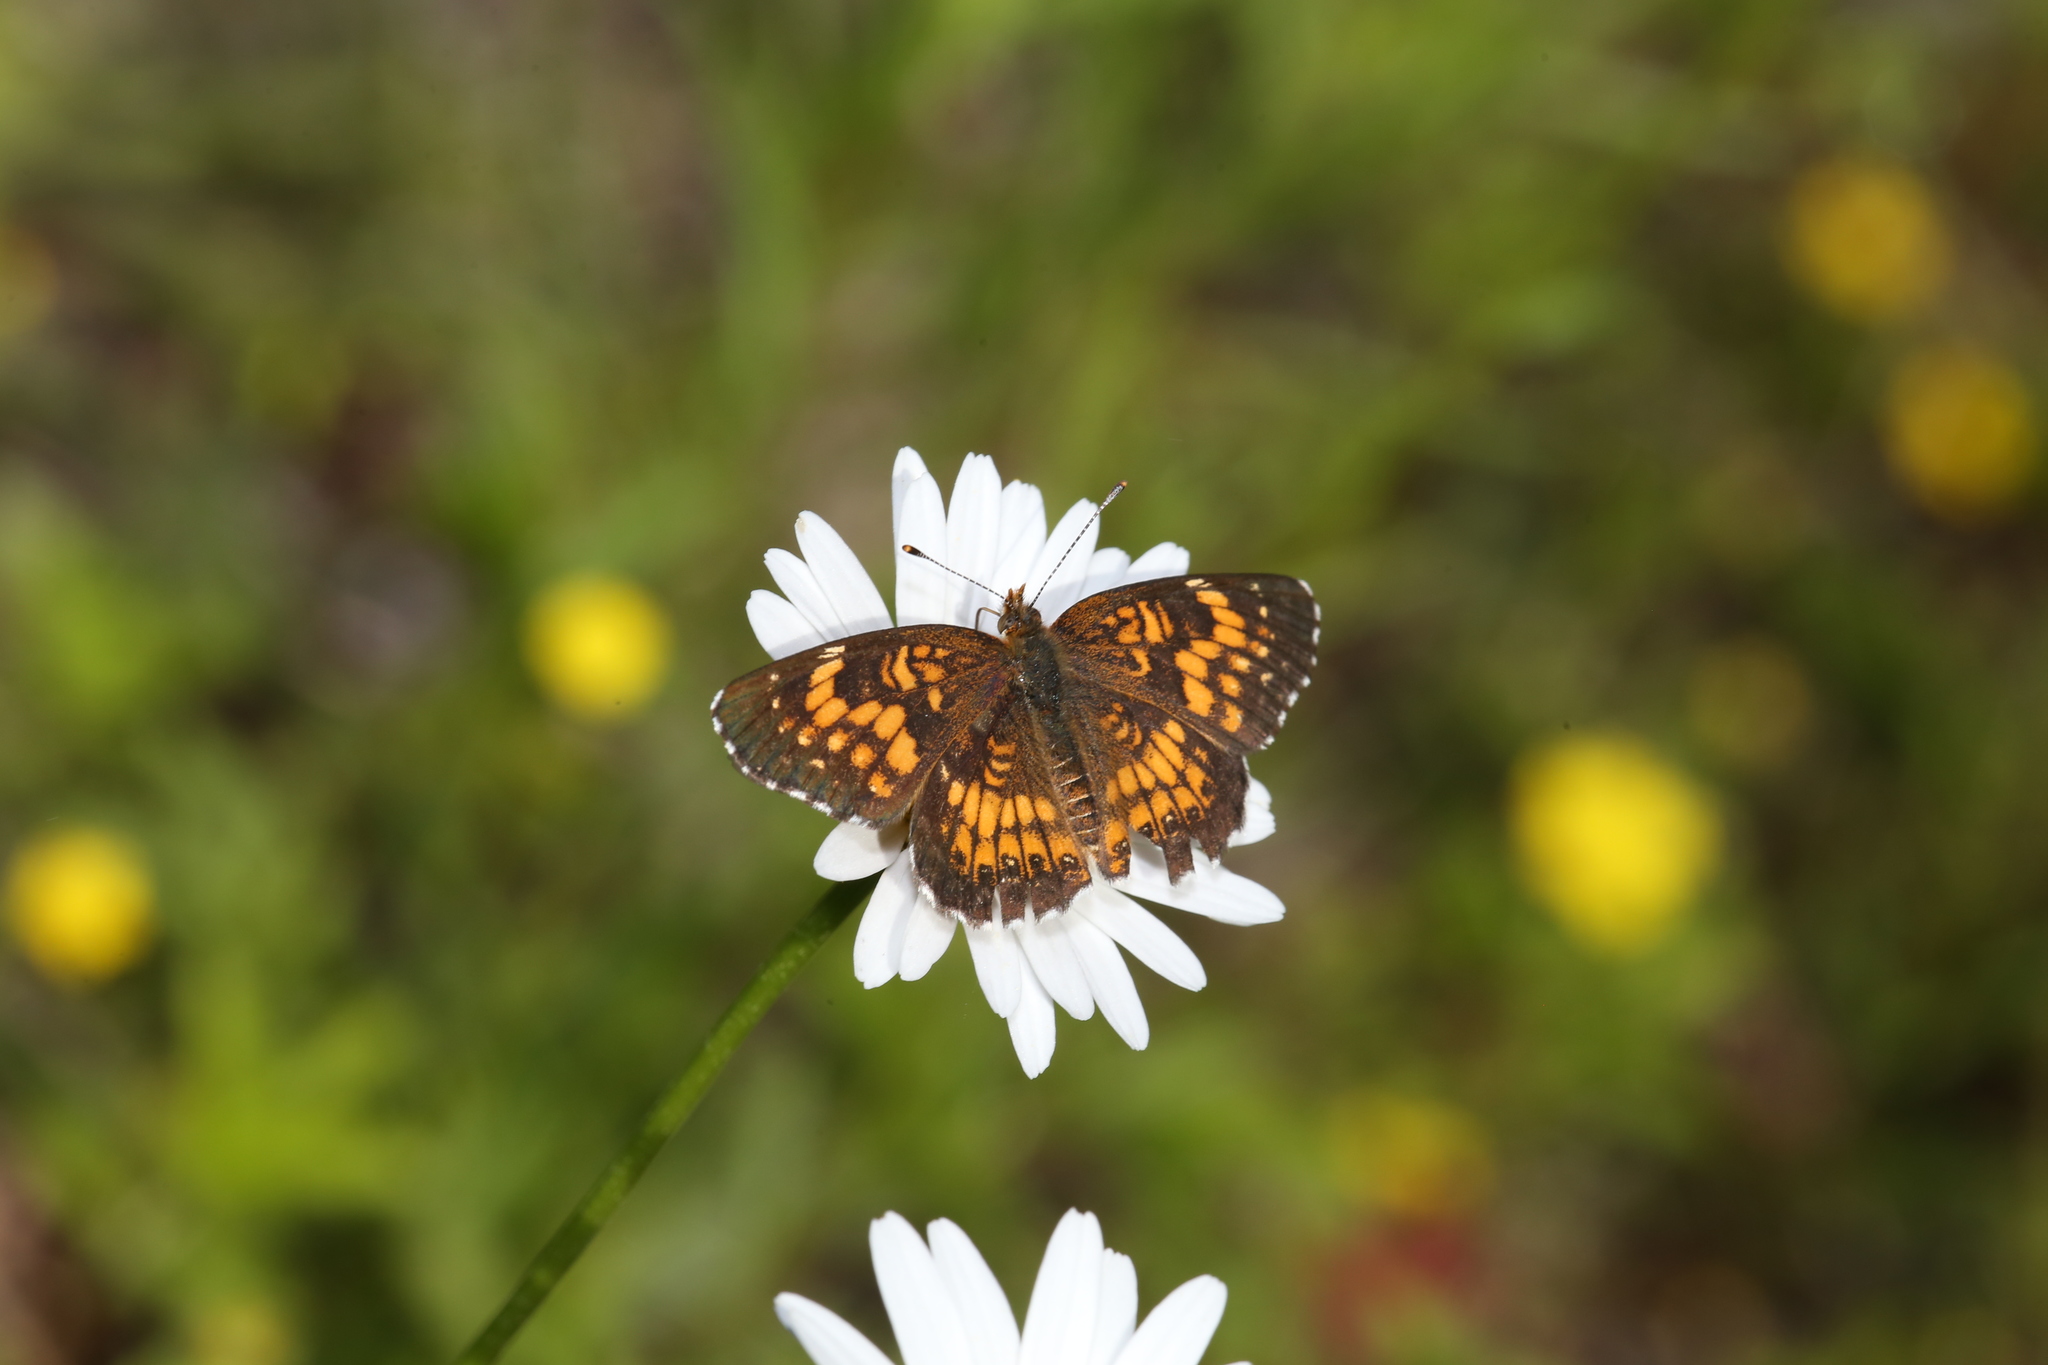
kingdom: Animalia
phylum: Arthropoda
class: Insecta
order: Lepidoptera
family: Nymphalidae
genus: Chlosyne
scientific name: Chlosyne harrisii
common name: Harris's checkerspot
